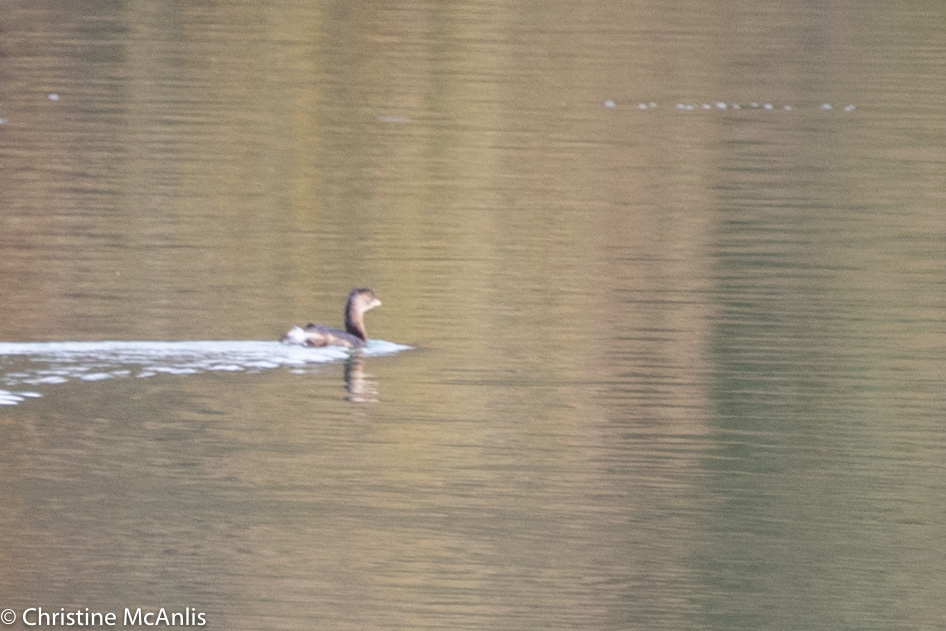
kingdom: Animalia
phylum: Chordata
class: Aves
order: Podicipediformes
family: Podicipedidae
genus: Podilymbus
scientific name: Podilymbus podiceps
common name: Pied-billed grebe
